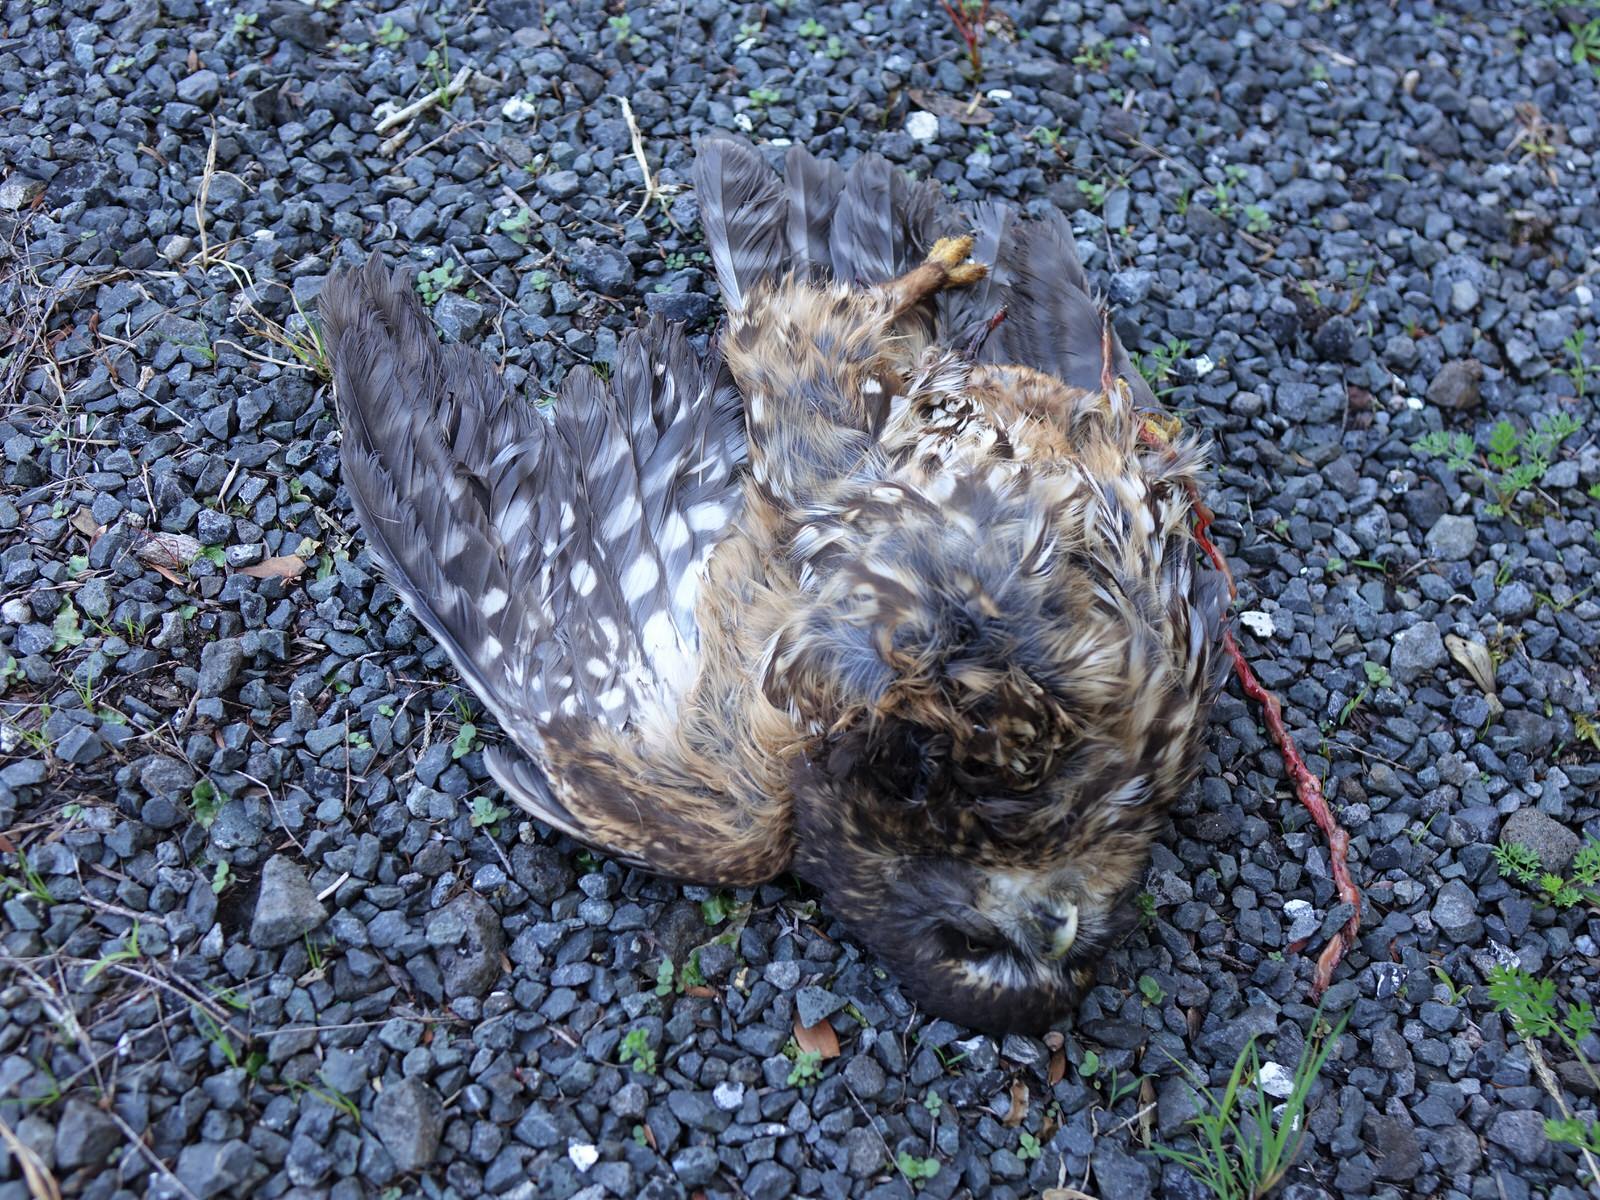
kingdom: Animalia
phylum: Chordata
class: Aves
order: Strigiformes
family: Strigidae
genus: Ninox
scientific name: Ninox novaeseelandiae
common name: Morepork
